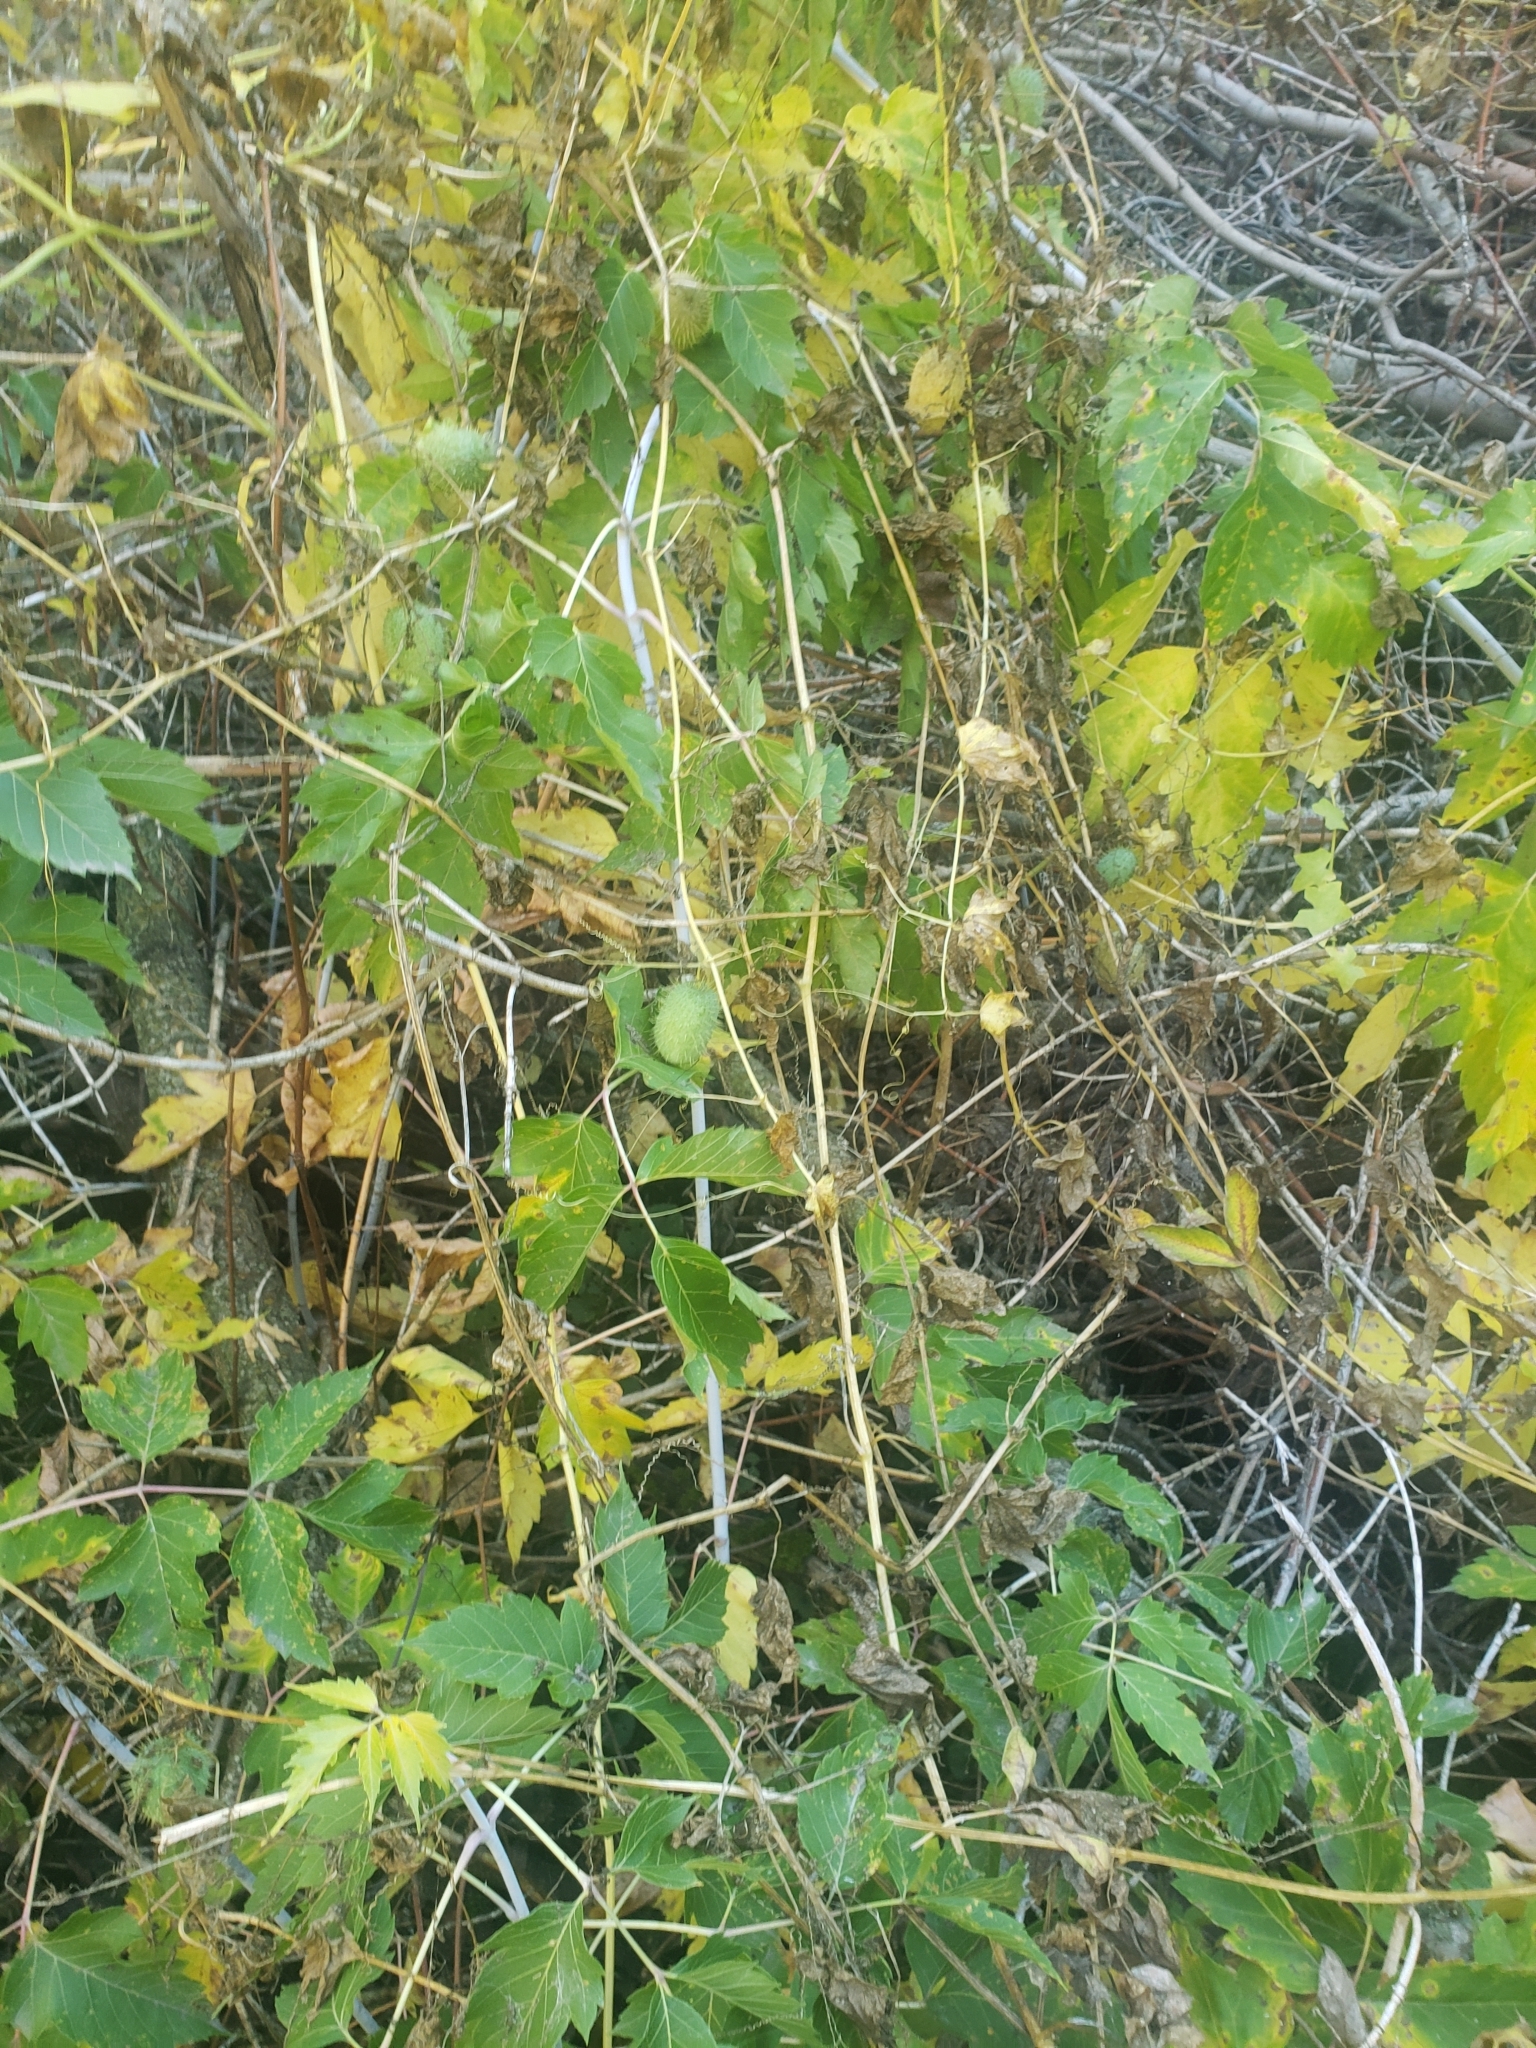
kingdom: Plantae
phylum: Tracheophyta
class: Magnoliopsida
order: Cucurbitales
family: Cucurbitaceae
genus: Echinocystis
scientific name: Echinocystis lobata
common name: Wild cucumber
